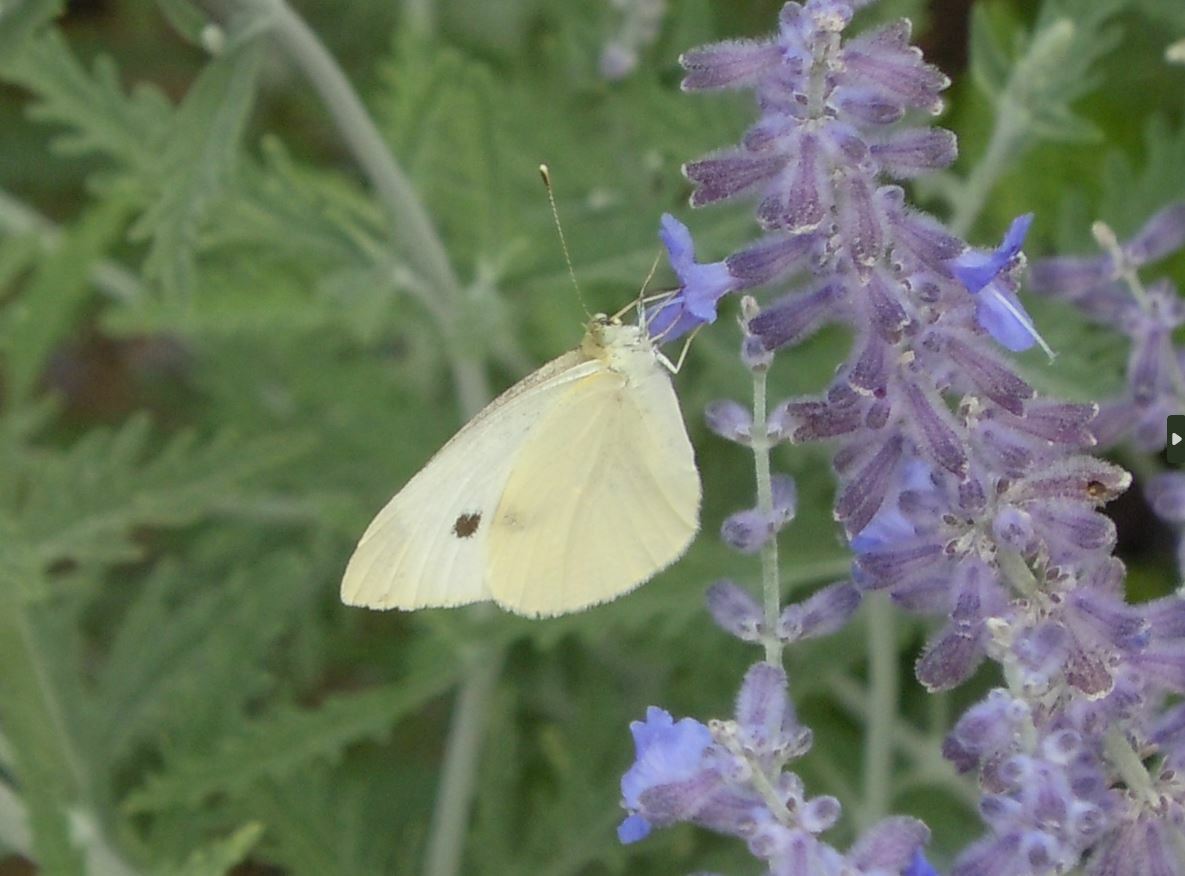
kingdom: Animalia
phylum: Arthropoda
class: Insecta
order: Lepidoptera
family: Pieridae
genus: Pieris
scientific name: Pieris rapae
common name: Small white
